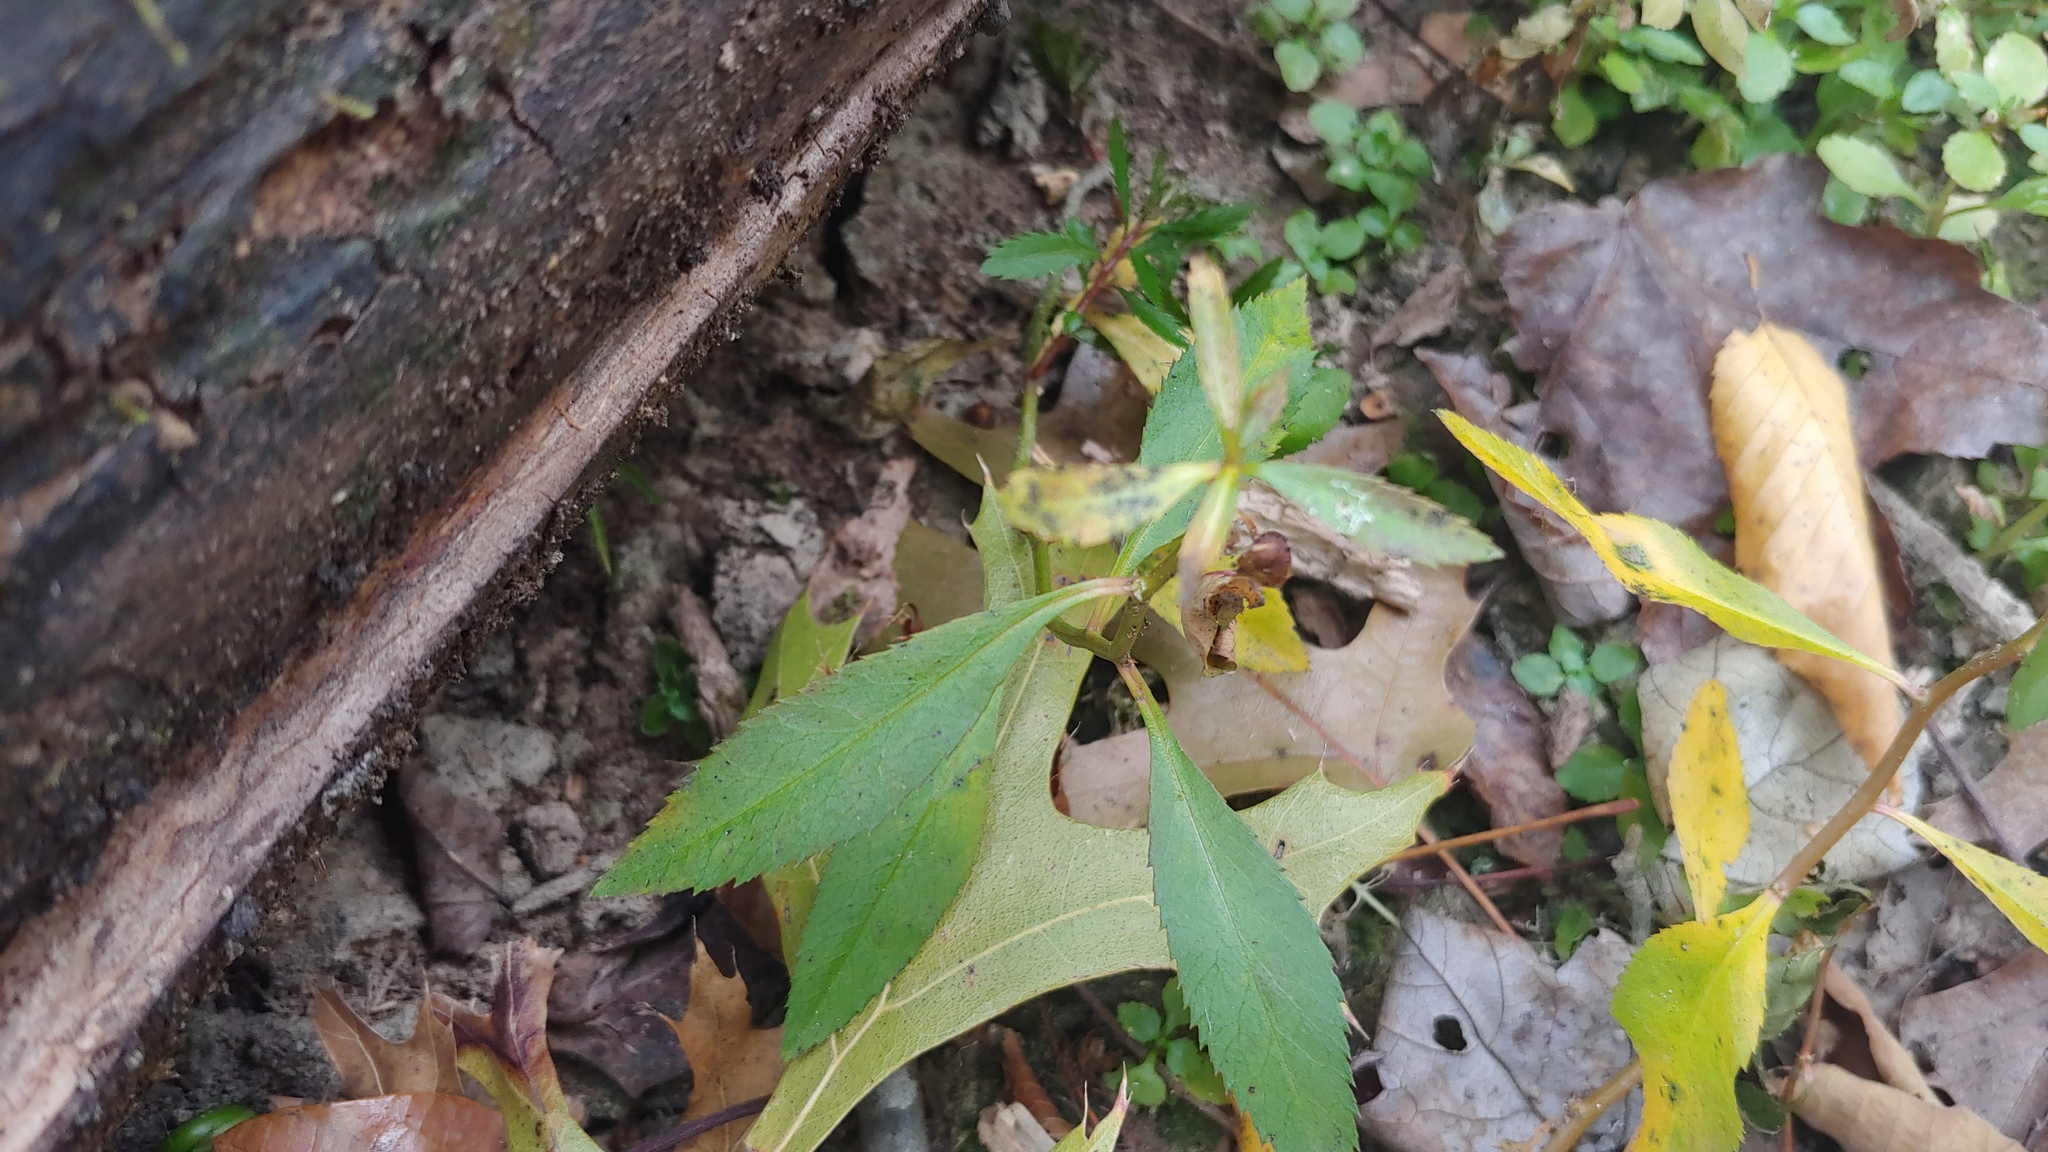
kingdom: Plantae
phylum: Tracheophyta
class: Magnoliopsida
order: Saxifragales
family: Haloragaceae
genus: Proserpinaca
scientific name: Proserpinaca palustris
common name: Marsh mermaidweed
